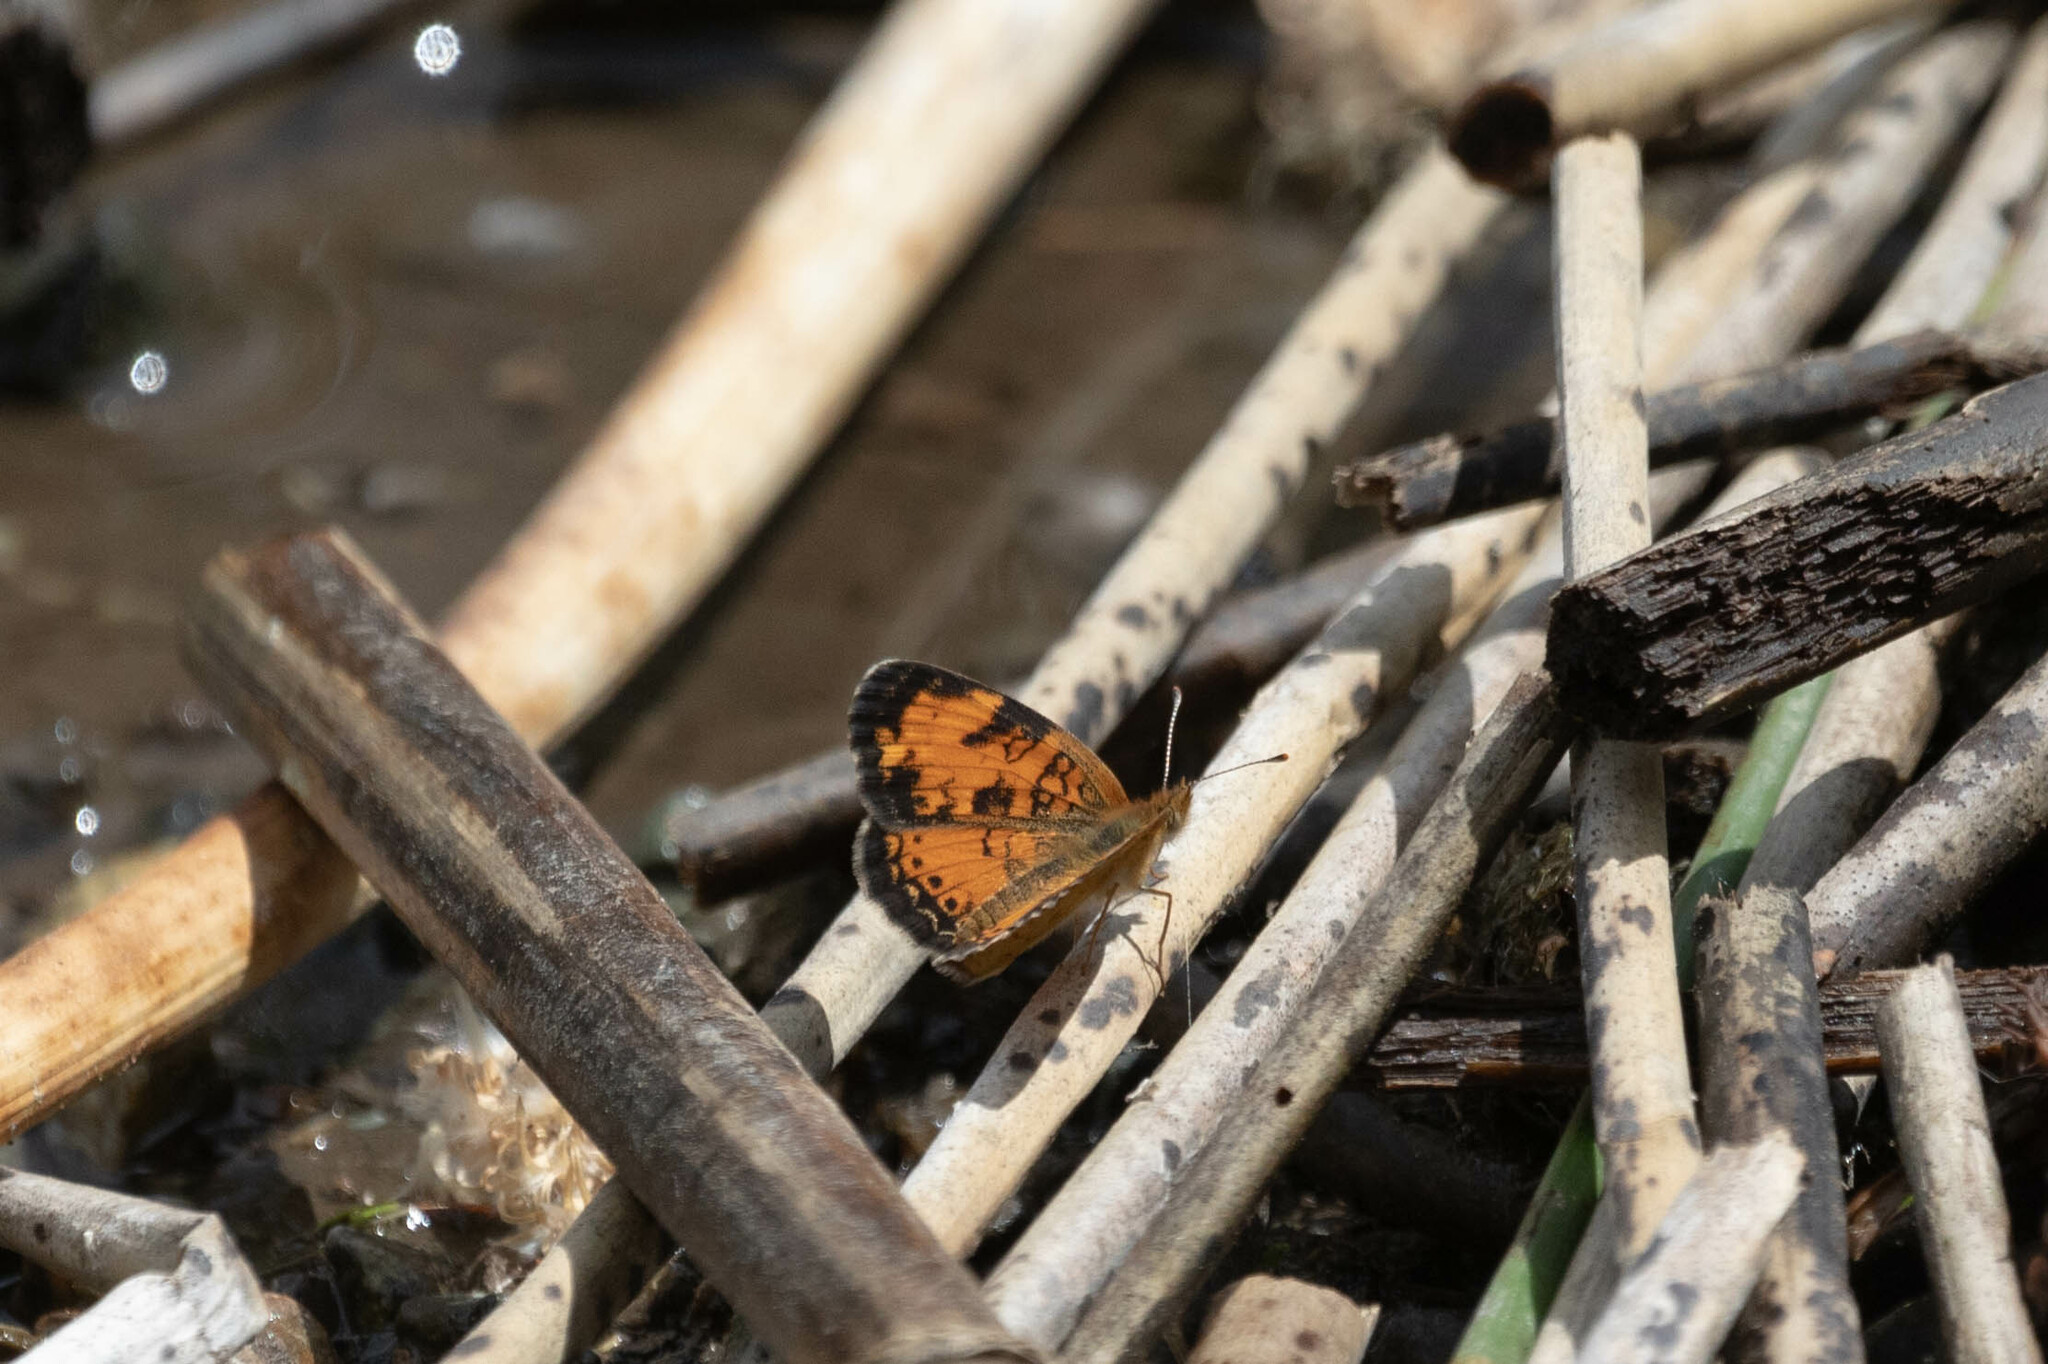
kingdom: Animalia
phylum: Arthropoda
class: Insecta
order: Lepidoptera
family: Nymphalidae
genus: Phyciodes
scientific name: Phyciodes tharos
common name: Pearl crescent
